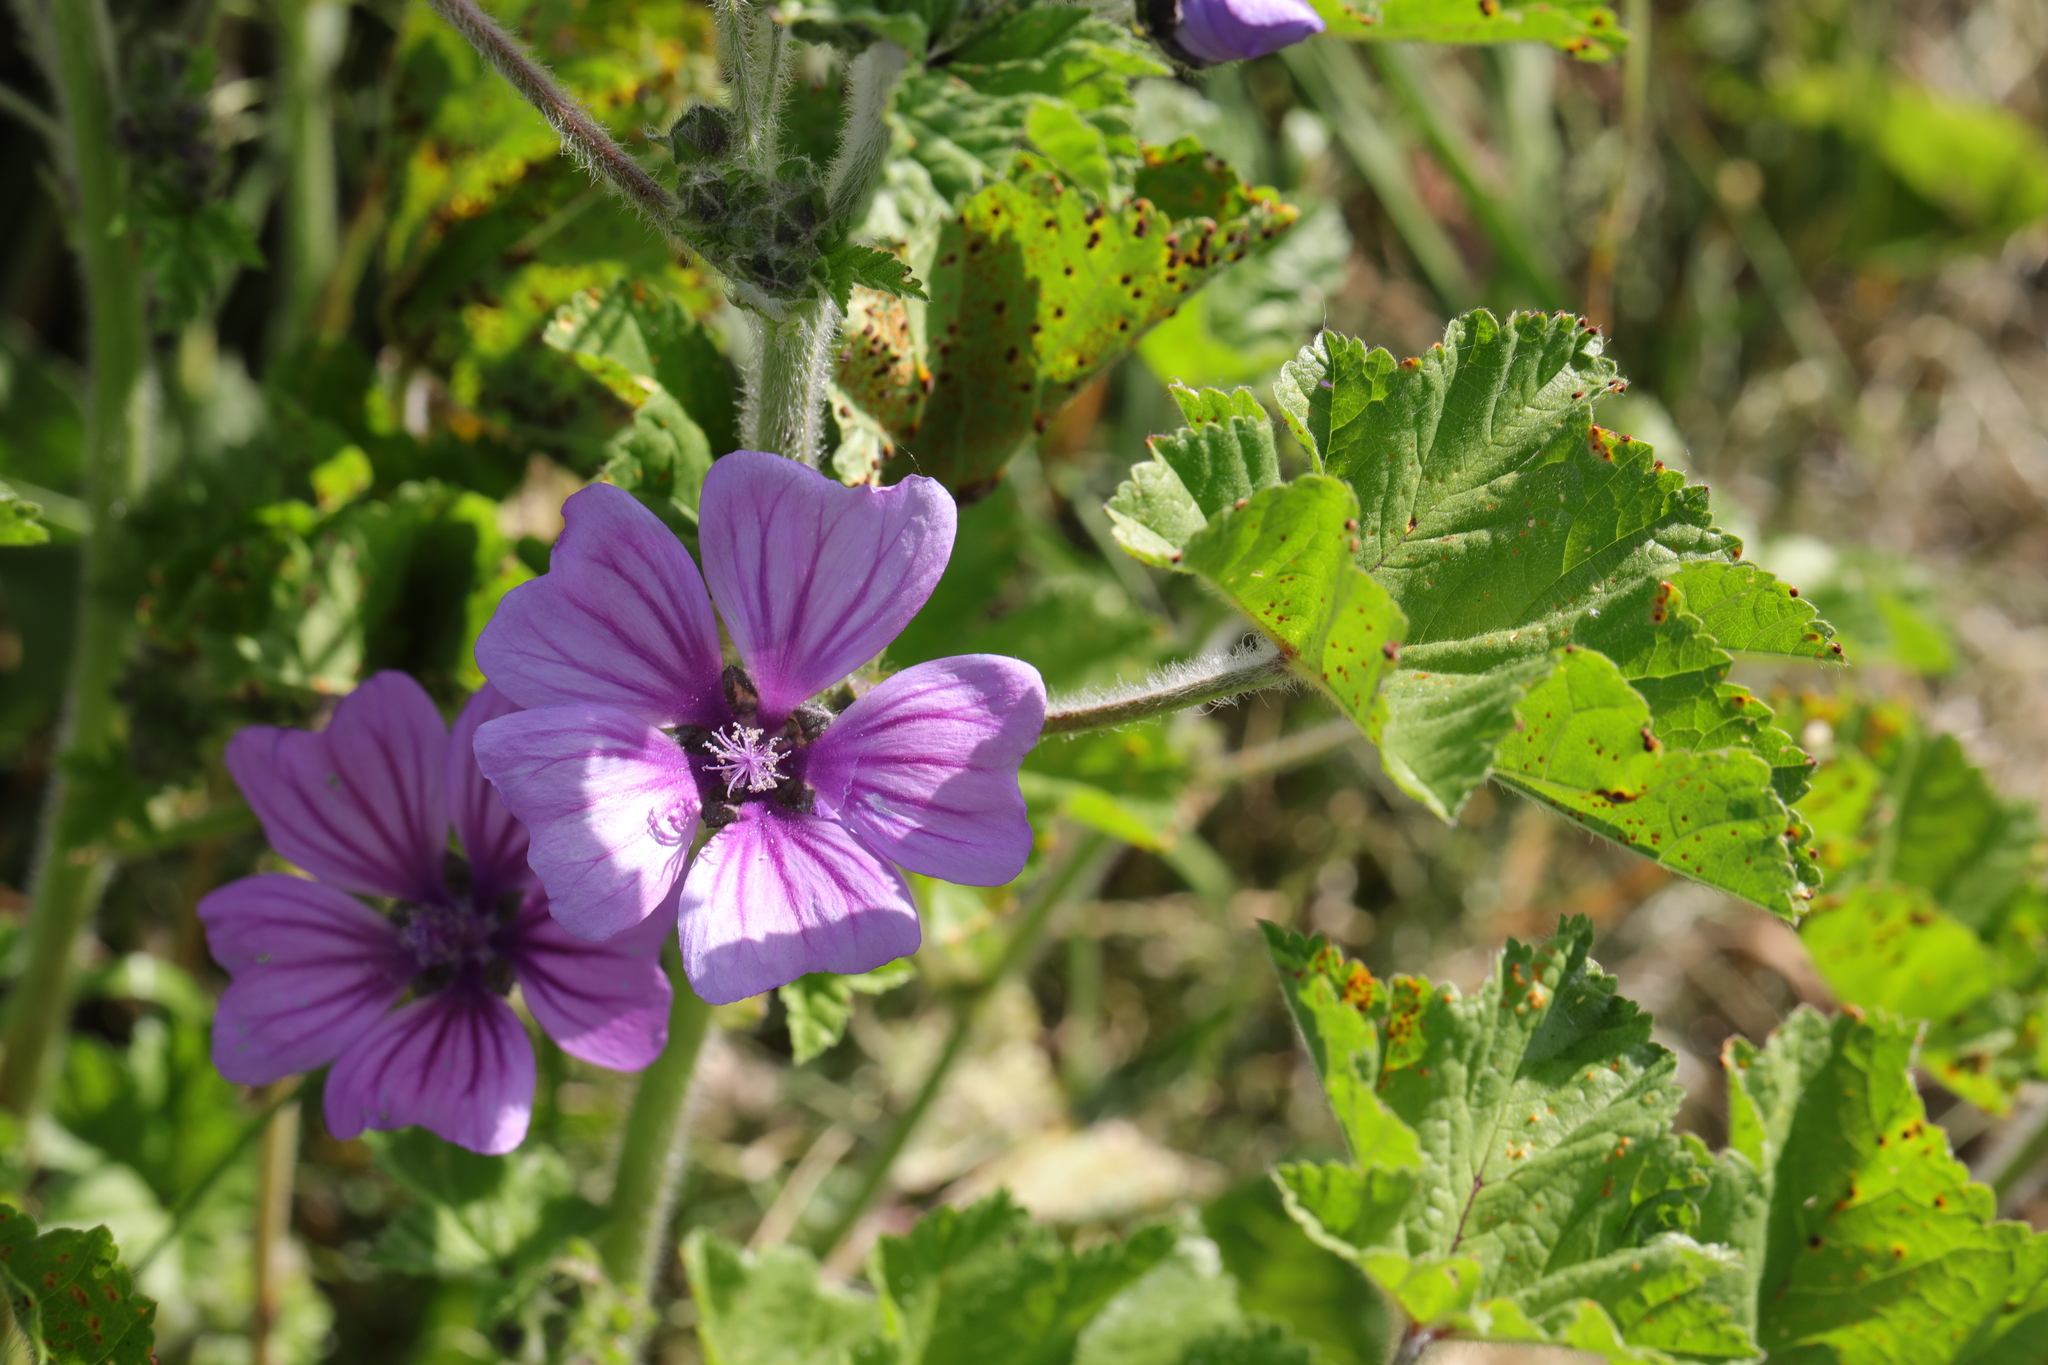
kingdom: Fungi
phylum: Basidiomycota
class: Pucciniomycetes
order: Pucciniales
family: Pucciniaceae
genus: Puccinia
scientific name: Puccinia malvacearum
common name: Hollyhock rust
